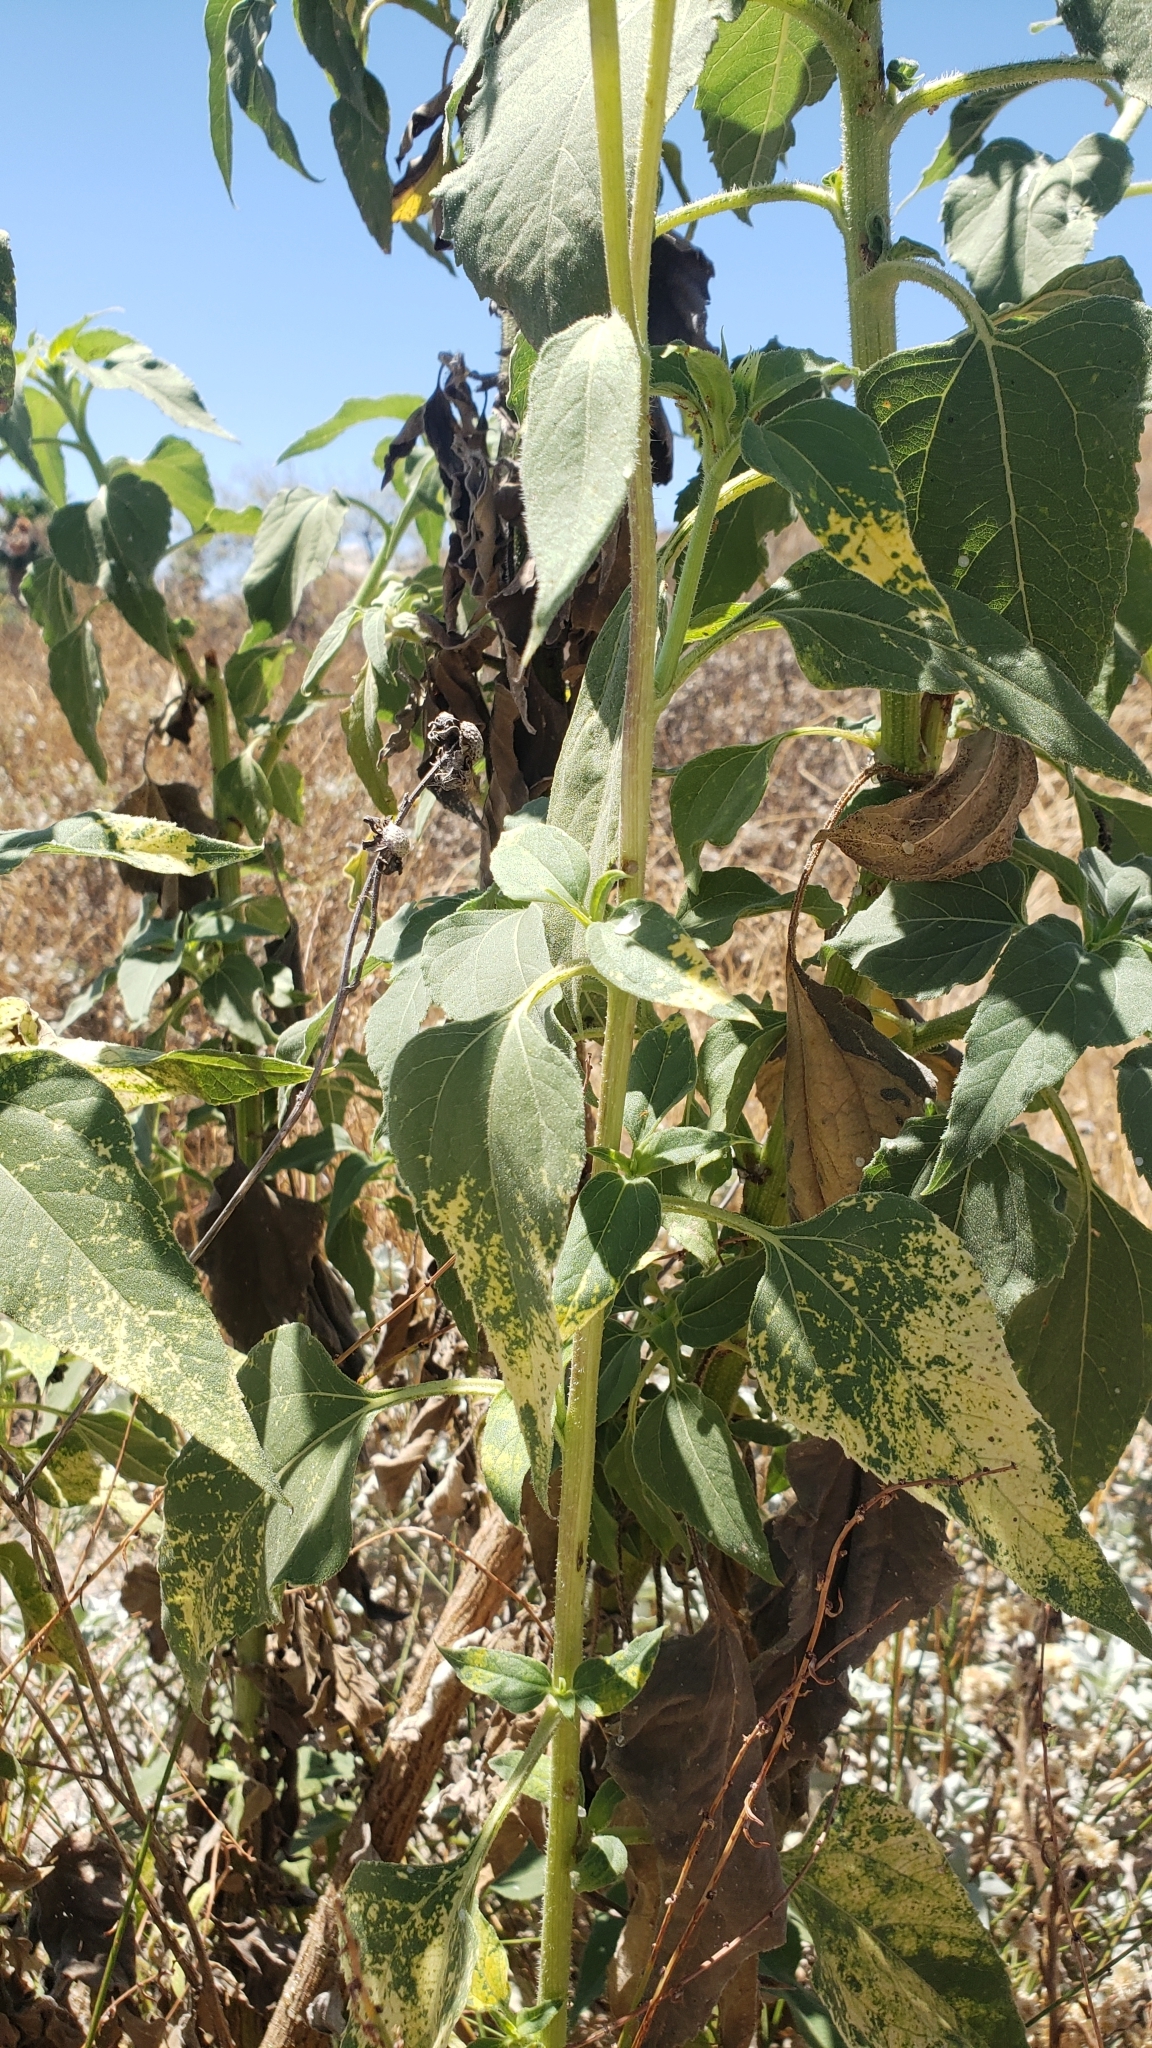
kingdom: Plantae
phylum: Tracheophyta
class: Magnoliopsida
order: Asterales
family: Asteraceae
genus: Helianthus
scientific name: Helianthus annuus
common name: Sunflower
